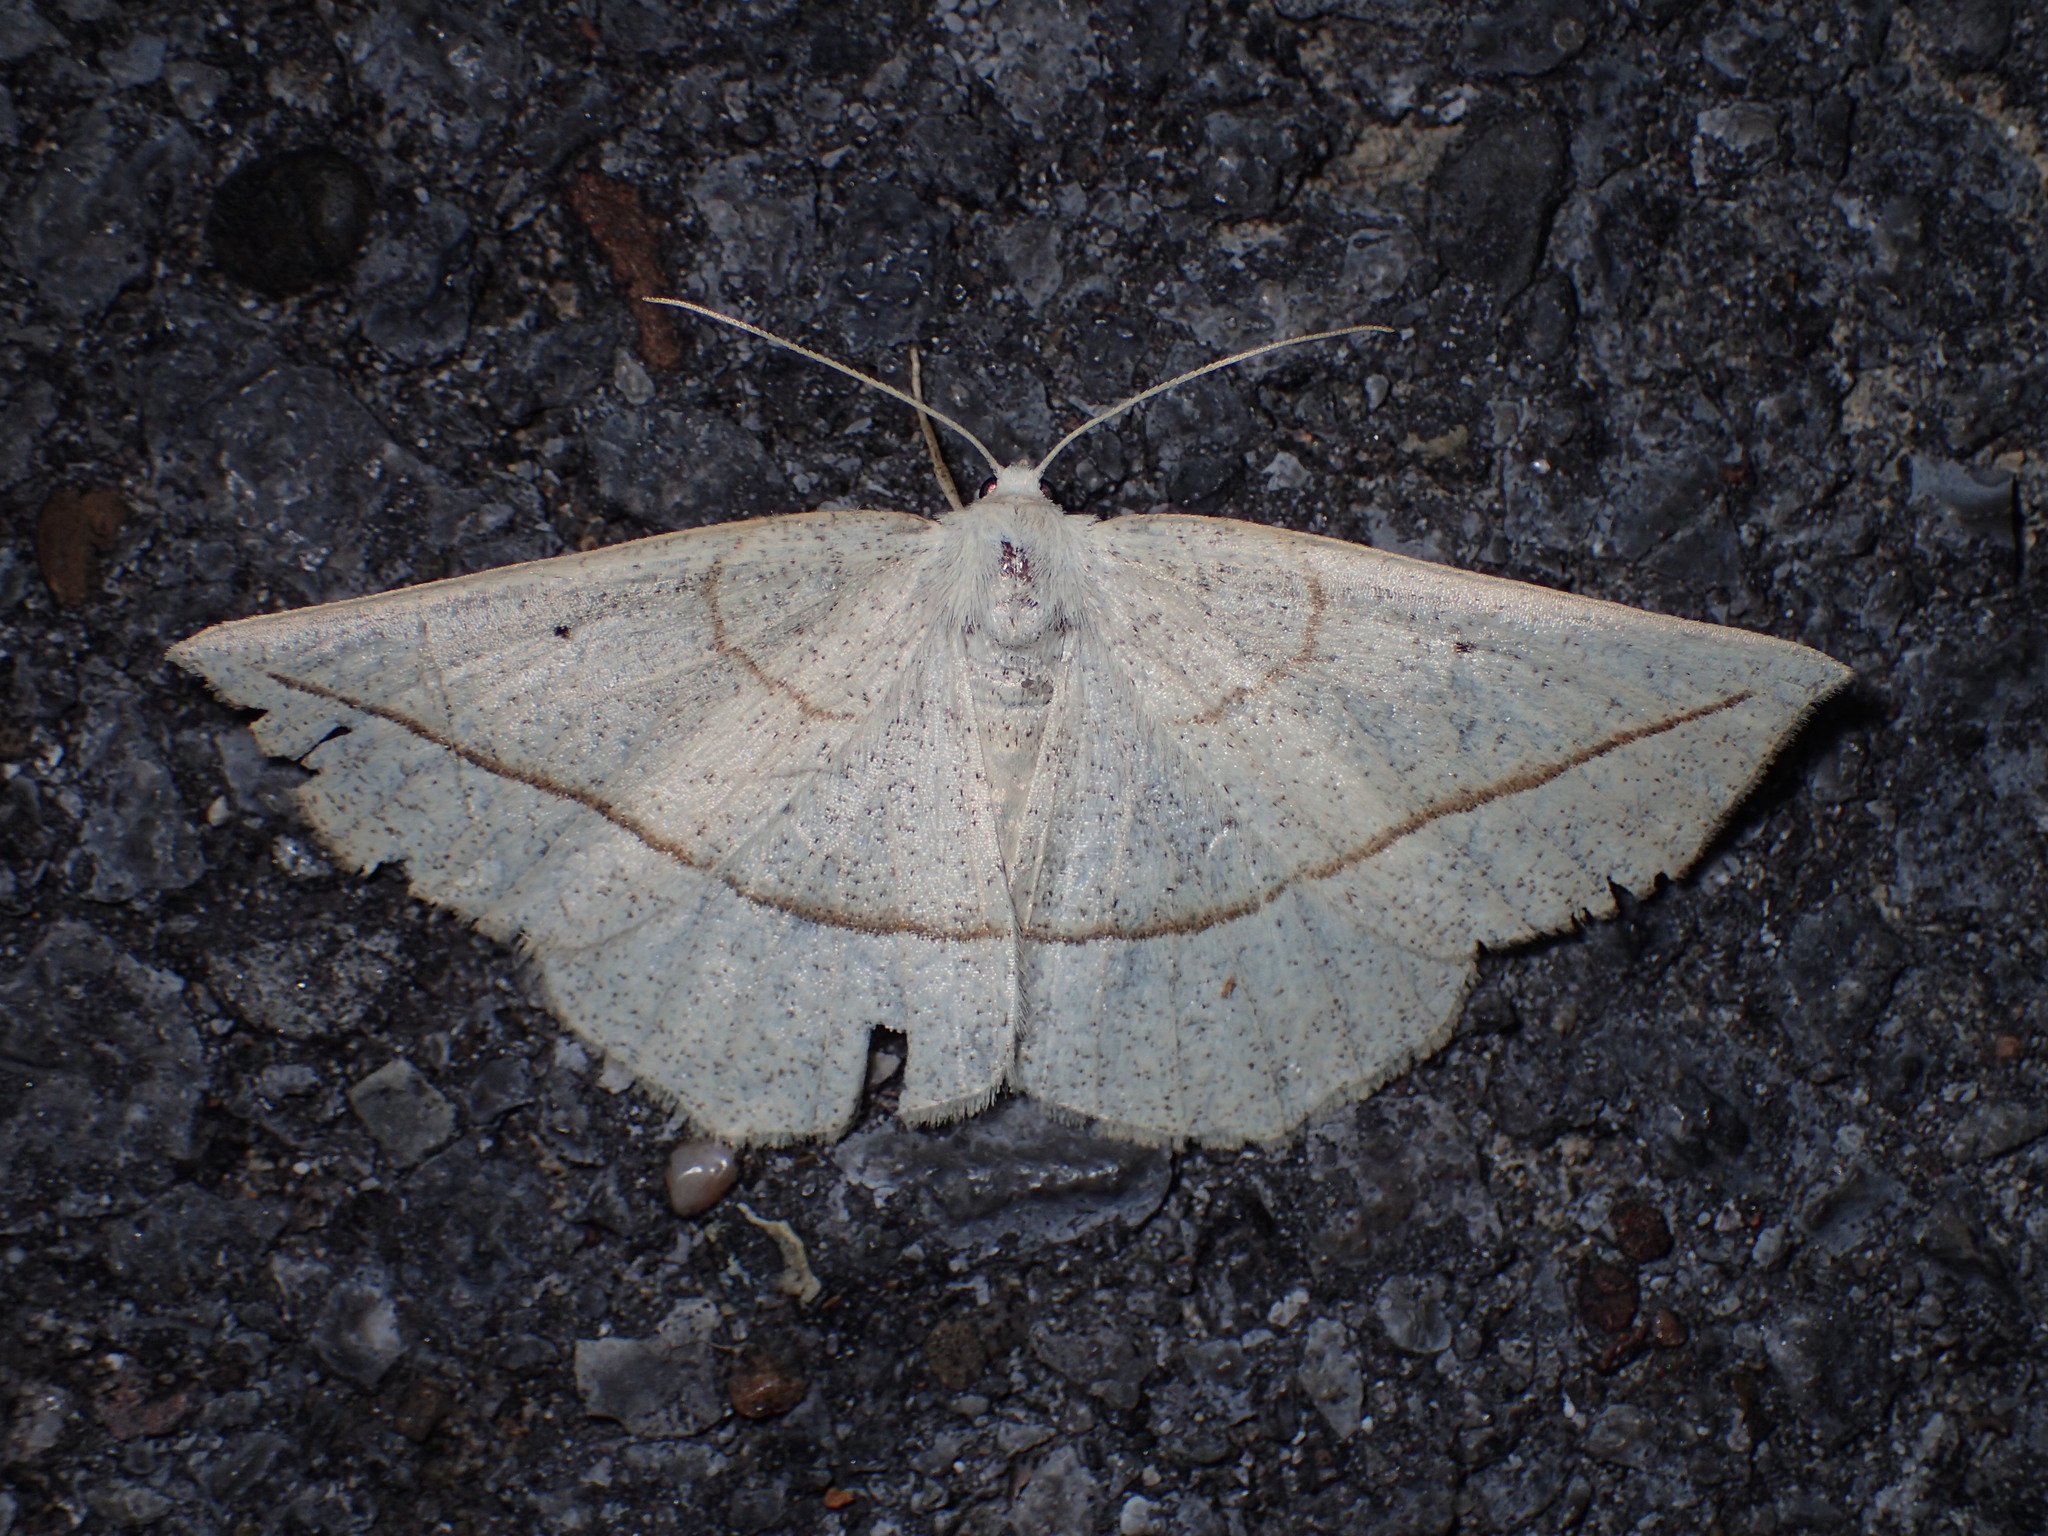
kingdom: Animalia
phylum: Arthropoda
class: Insecta
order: Lepidoptera
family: Geometridae
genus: Eusarca
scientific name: Eusarca confusaria
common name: Confused eusarca
